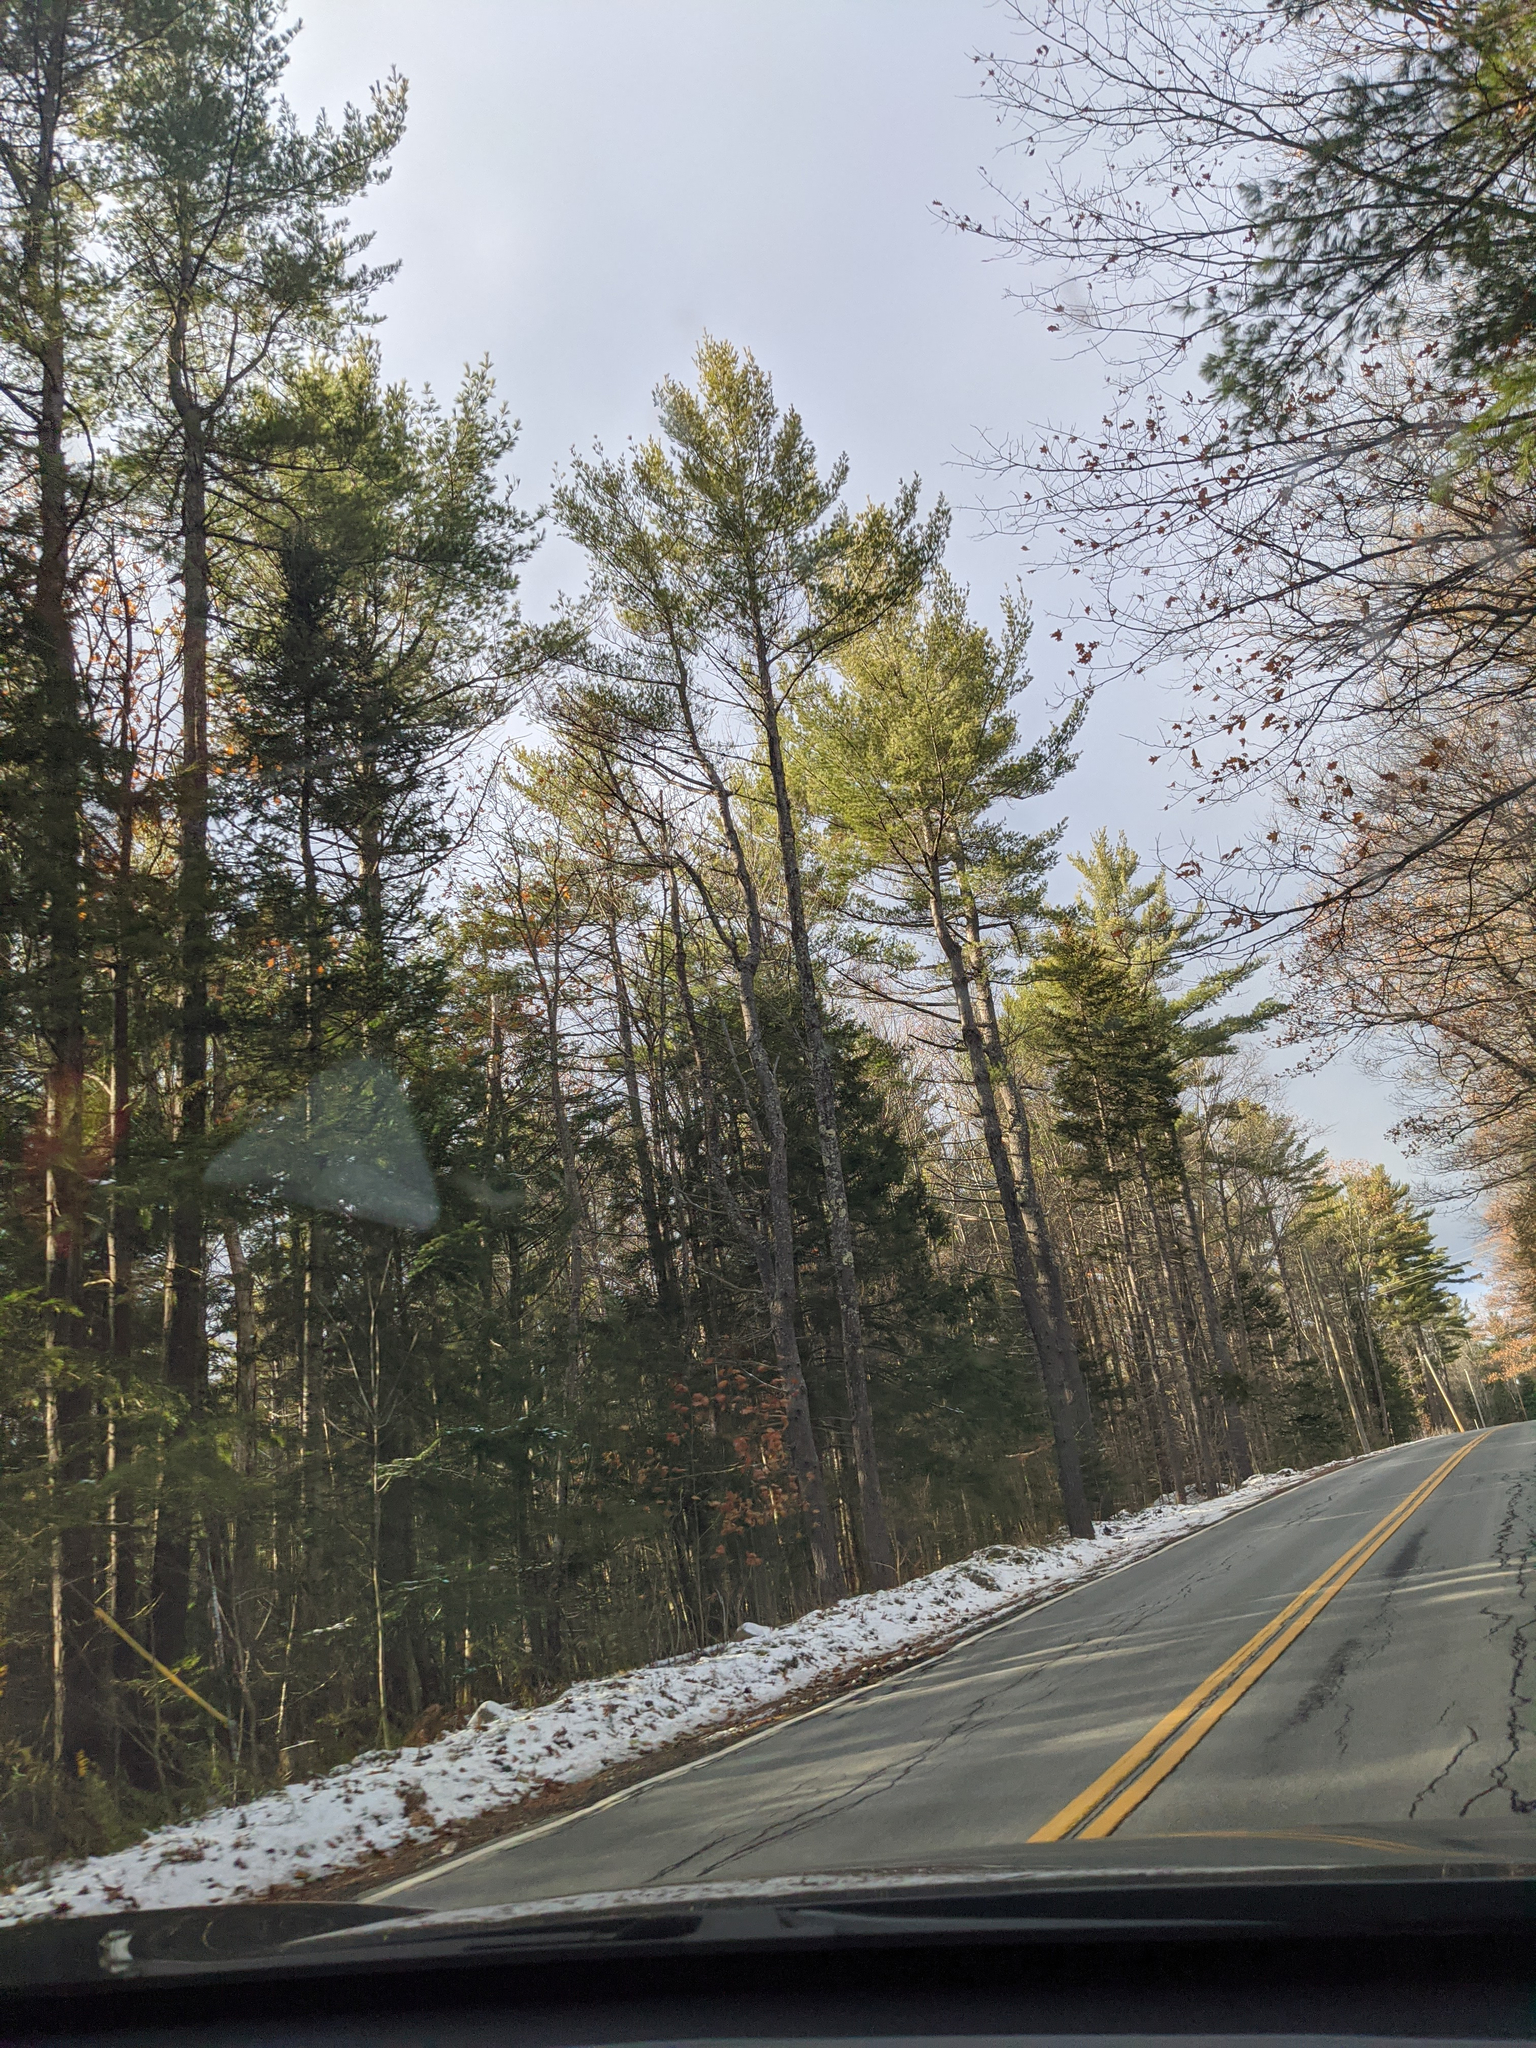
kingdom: Plantae
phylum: Tracheophyta
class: Pinopsida
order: Pinales
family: Pinaceae
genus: Pinus
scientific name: Pinus strobus
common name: Weymouth pine
